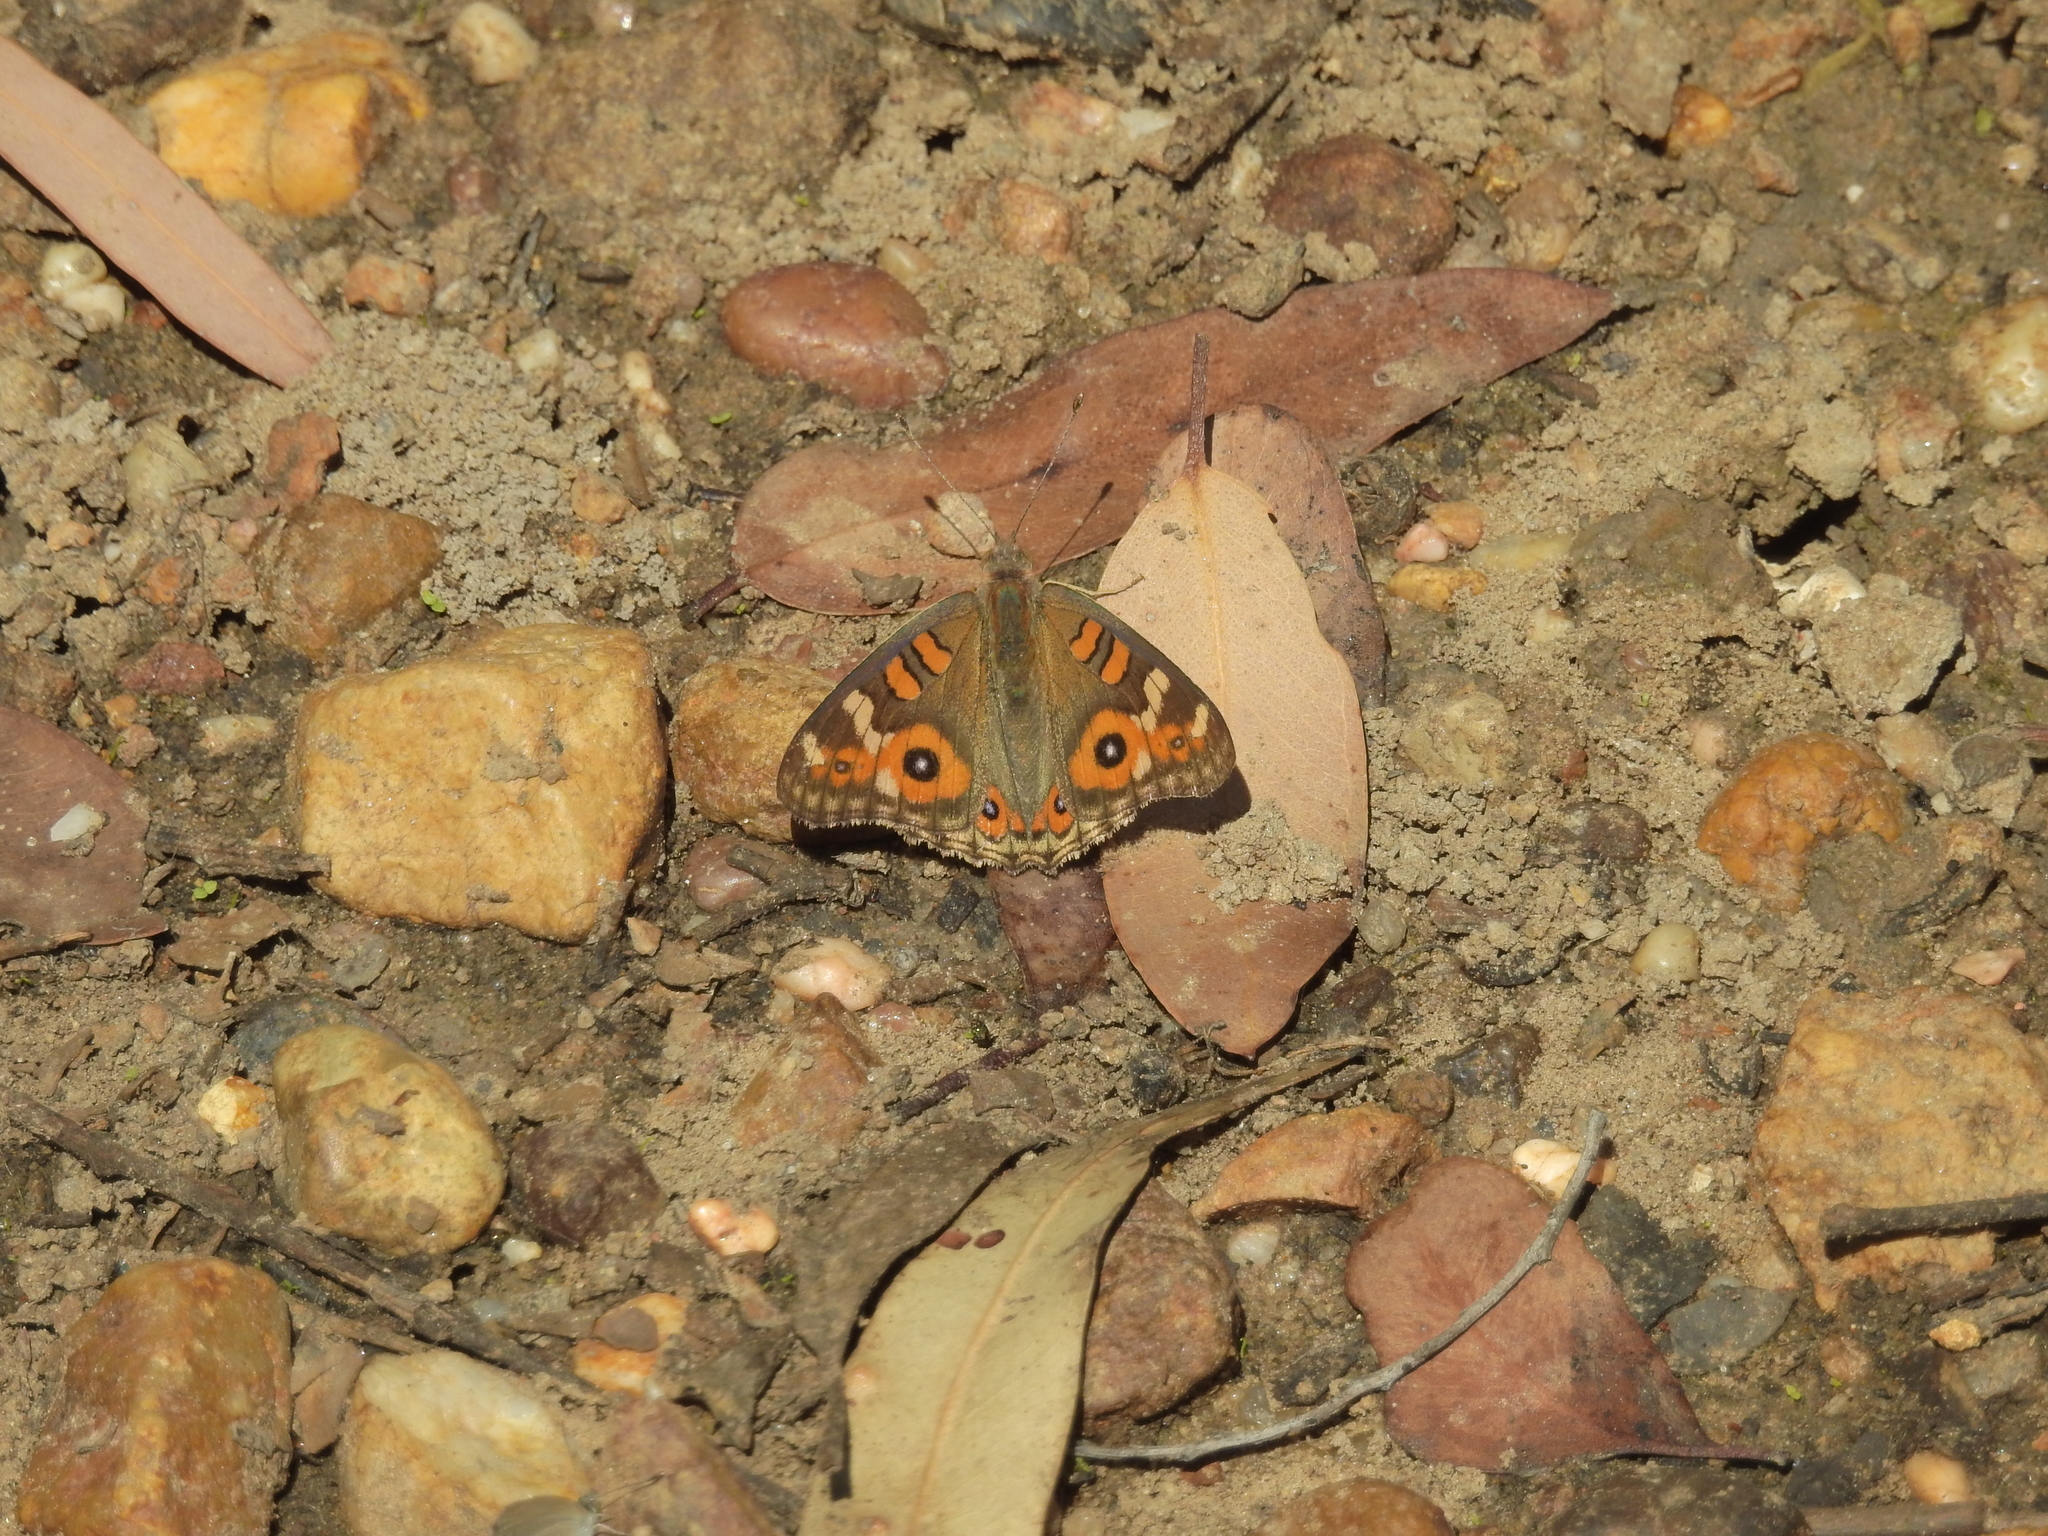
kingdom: Animalia
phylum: Arthropoda
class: Insecta
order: Lepidoptera
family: Nymphalidae
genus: Junonia
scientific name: Junonia villida
